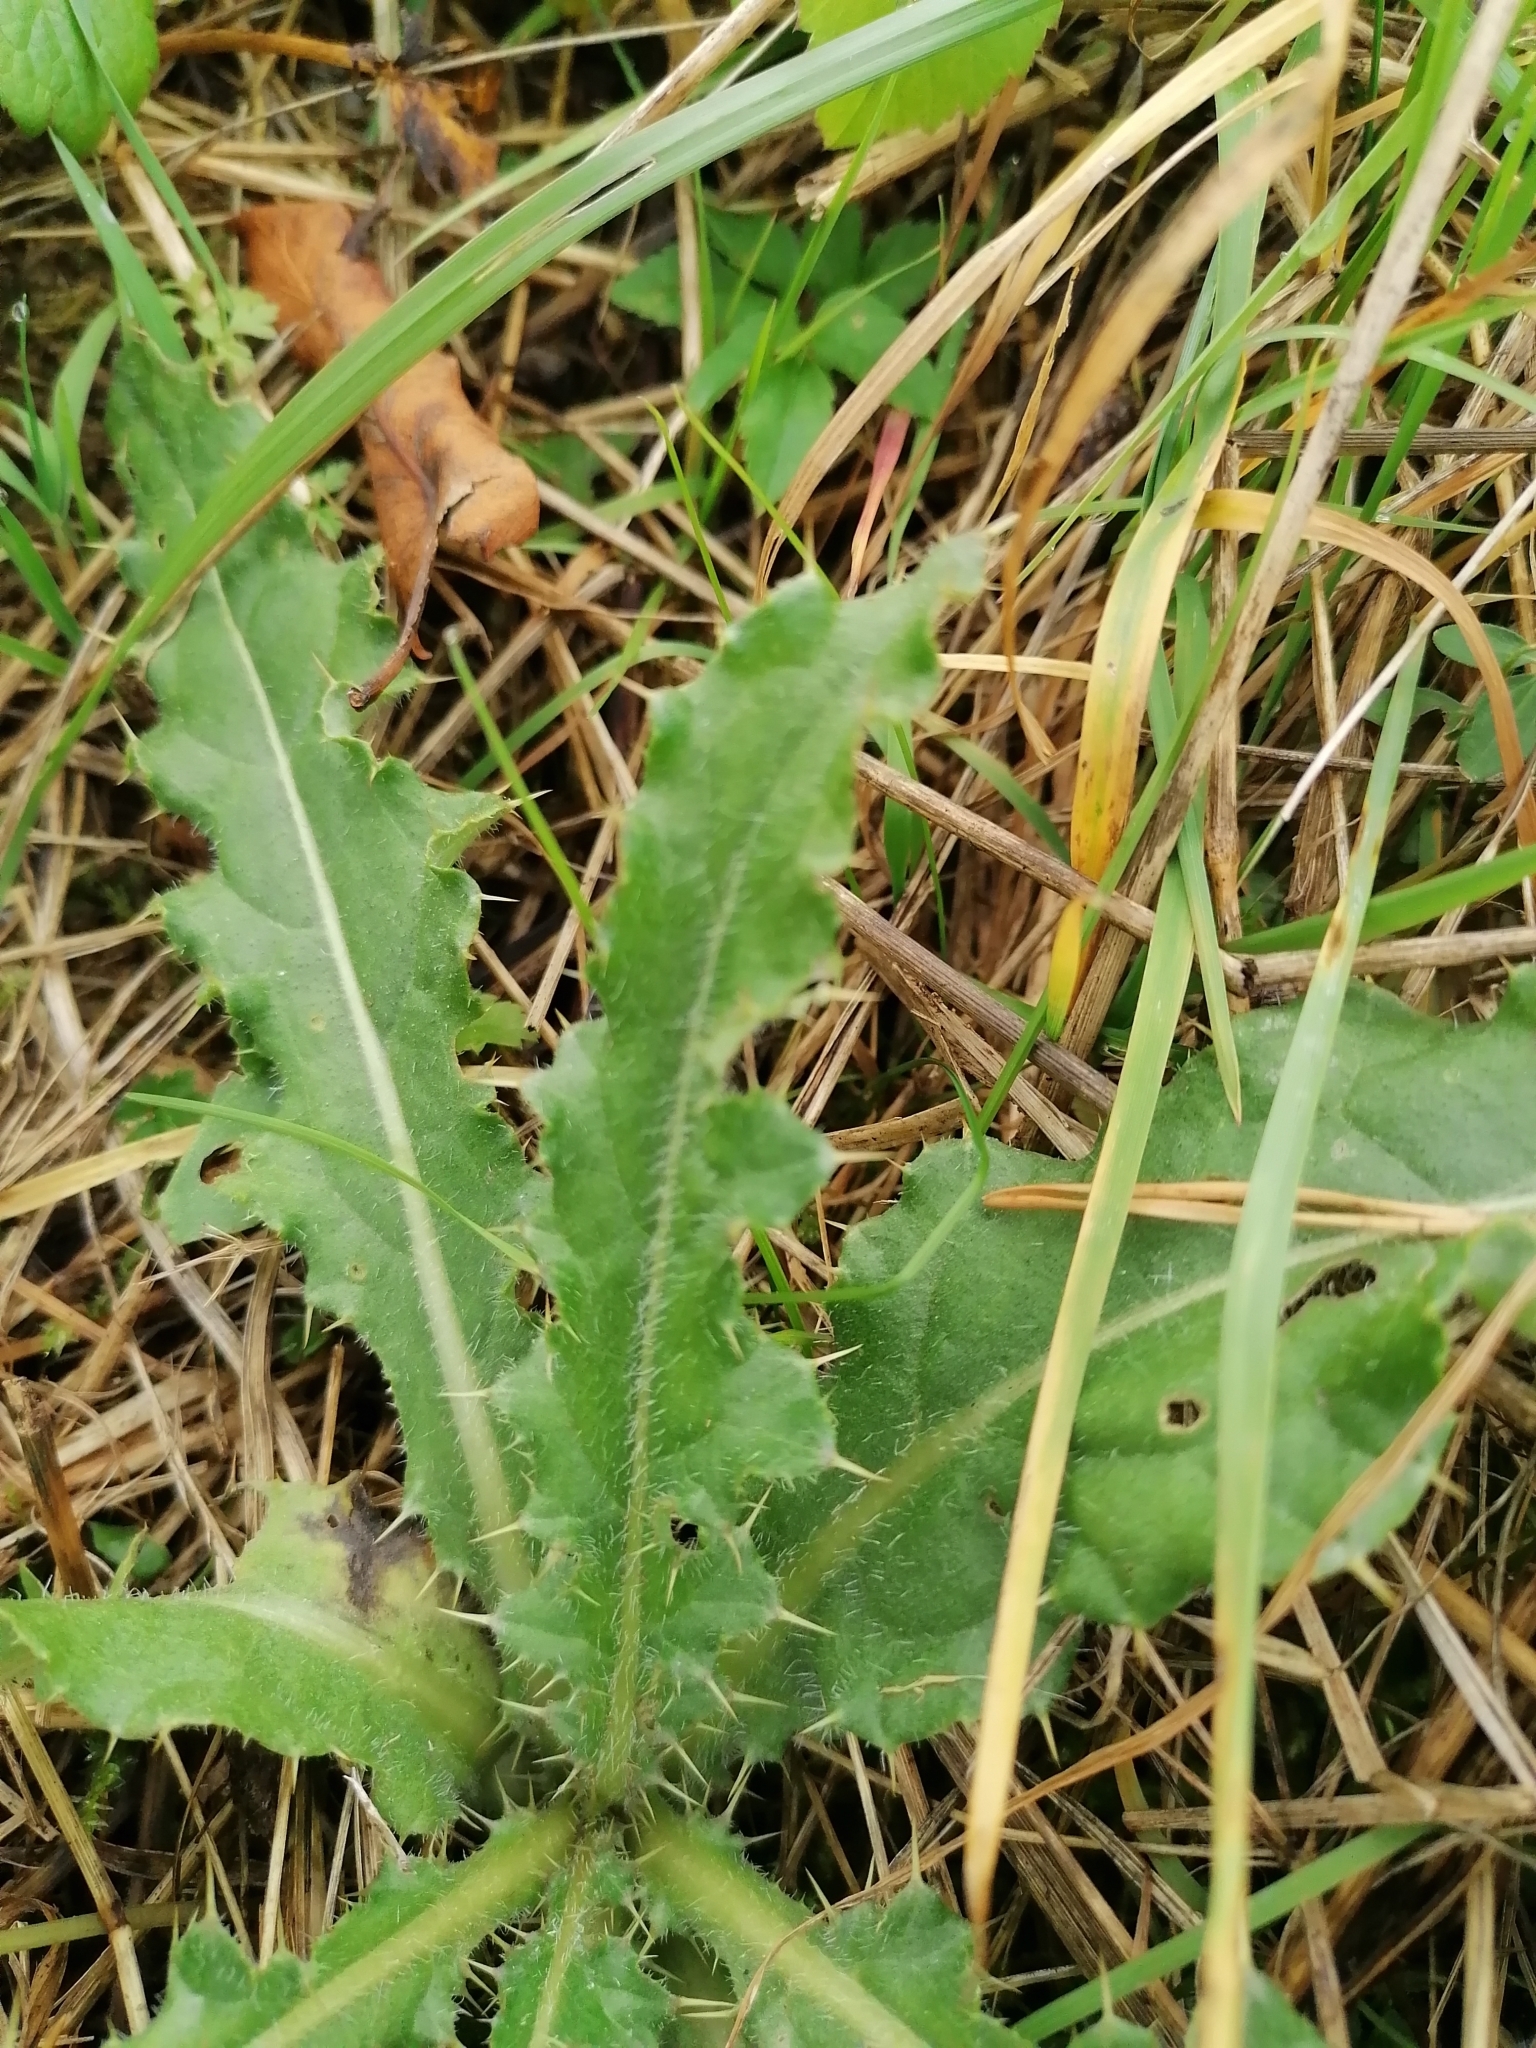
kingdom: Plantae
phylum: Tracheophyta
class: Magnoliopsida
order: Asterales
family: Asteraceae
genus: Cirsium
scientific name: Cirsium arvense
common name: Creeping thistle
